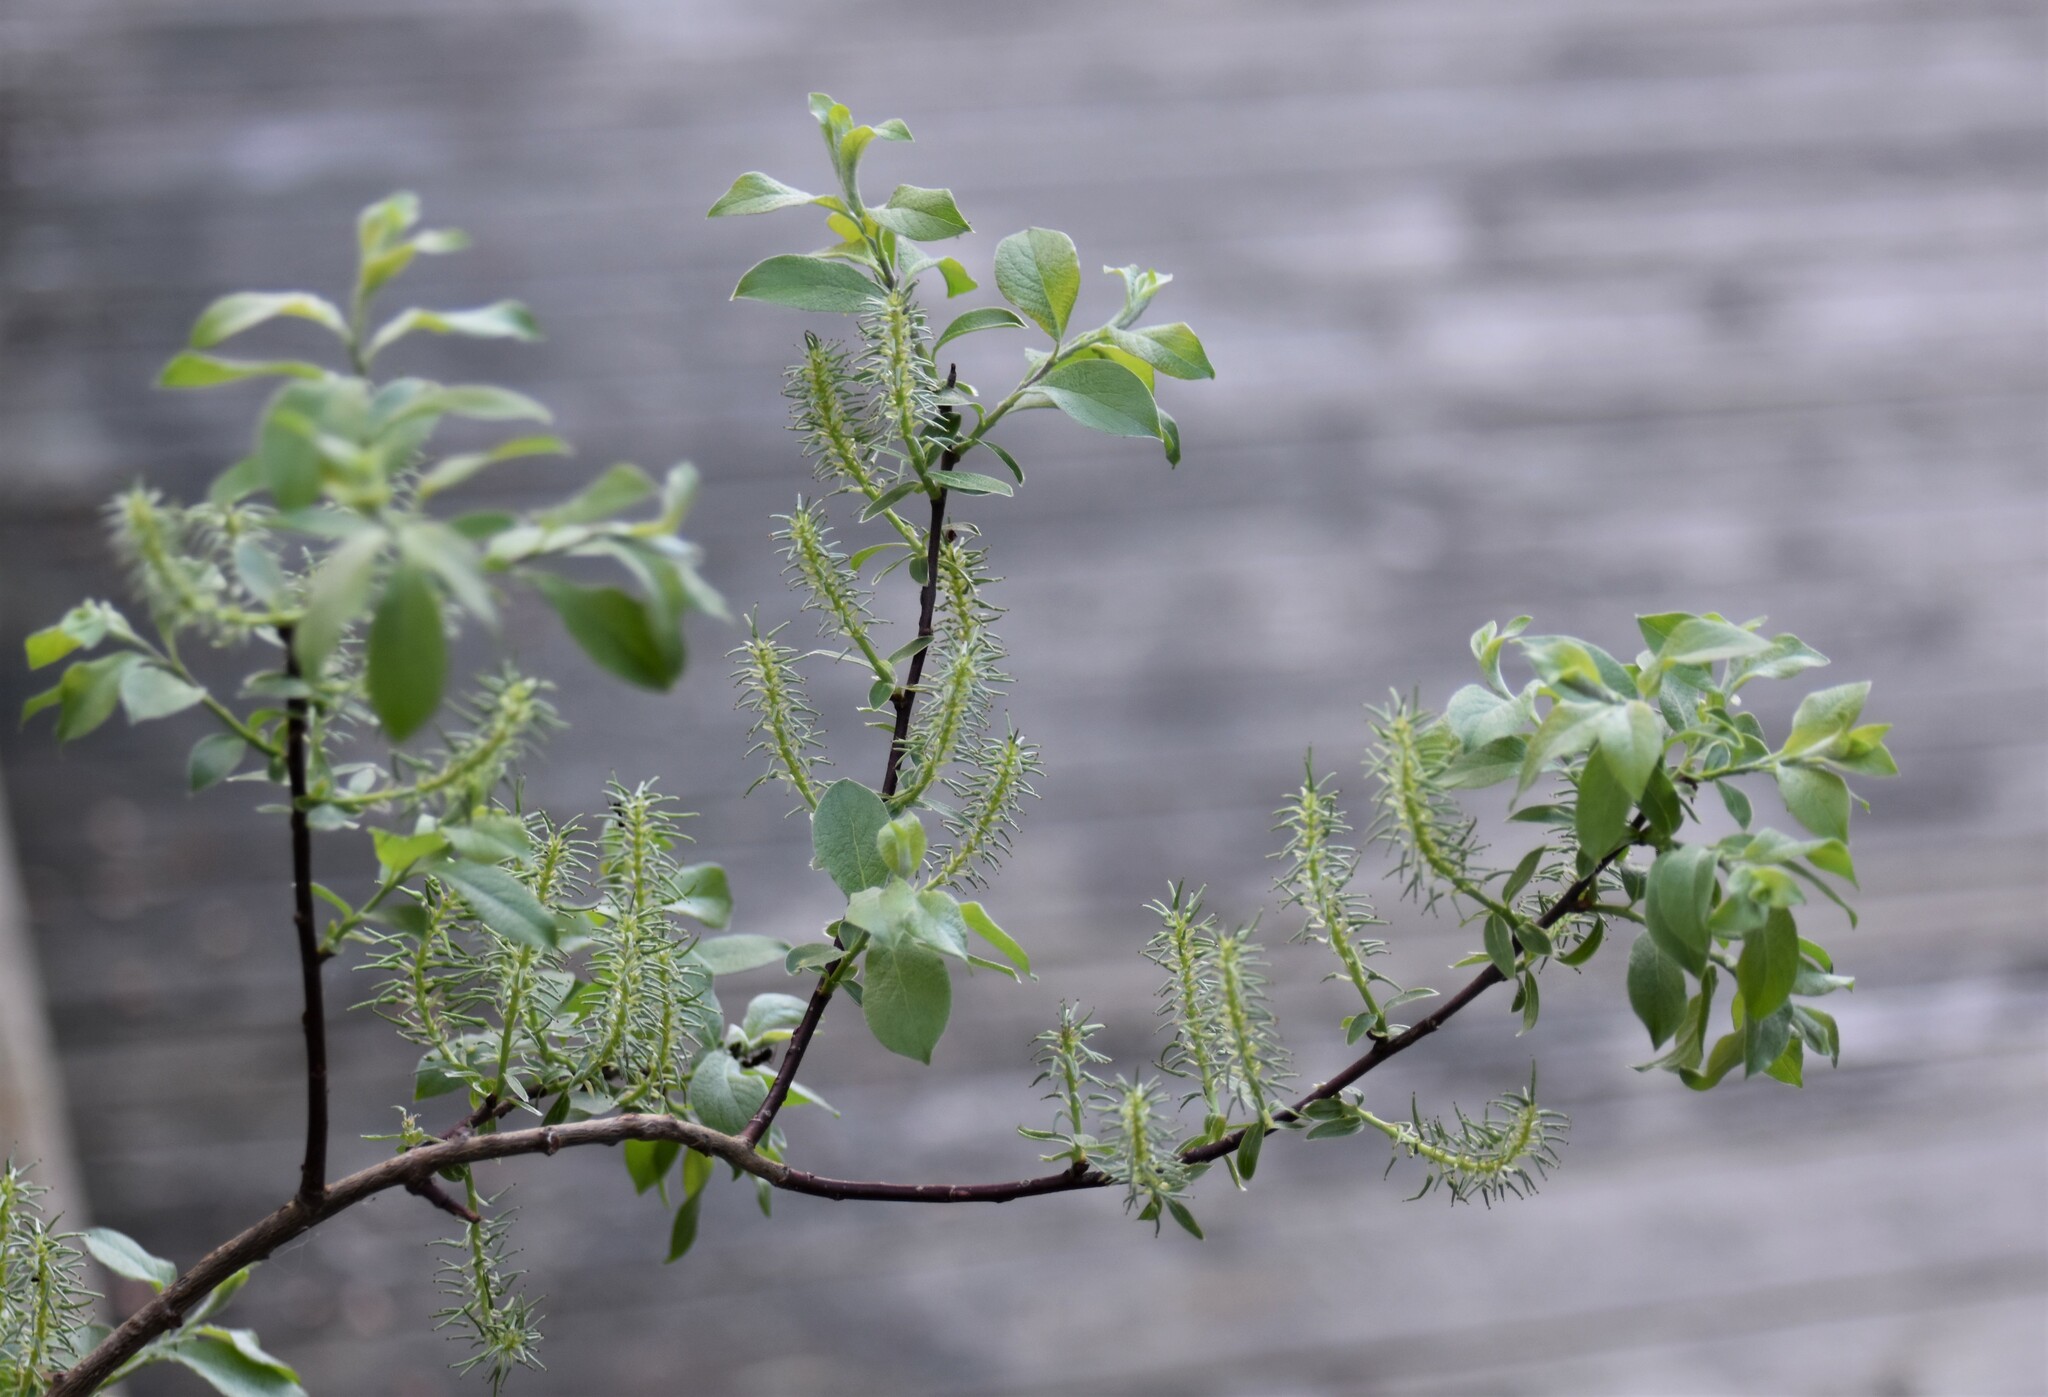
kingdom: Plantae
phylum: Tracheophyta
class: Magnoliopsida
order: Malpighiales
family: Salicaceae
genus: Salix
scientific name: Salix bebbiana
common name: Bebb's willow
